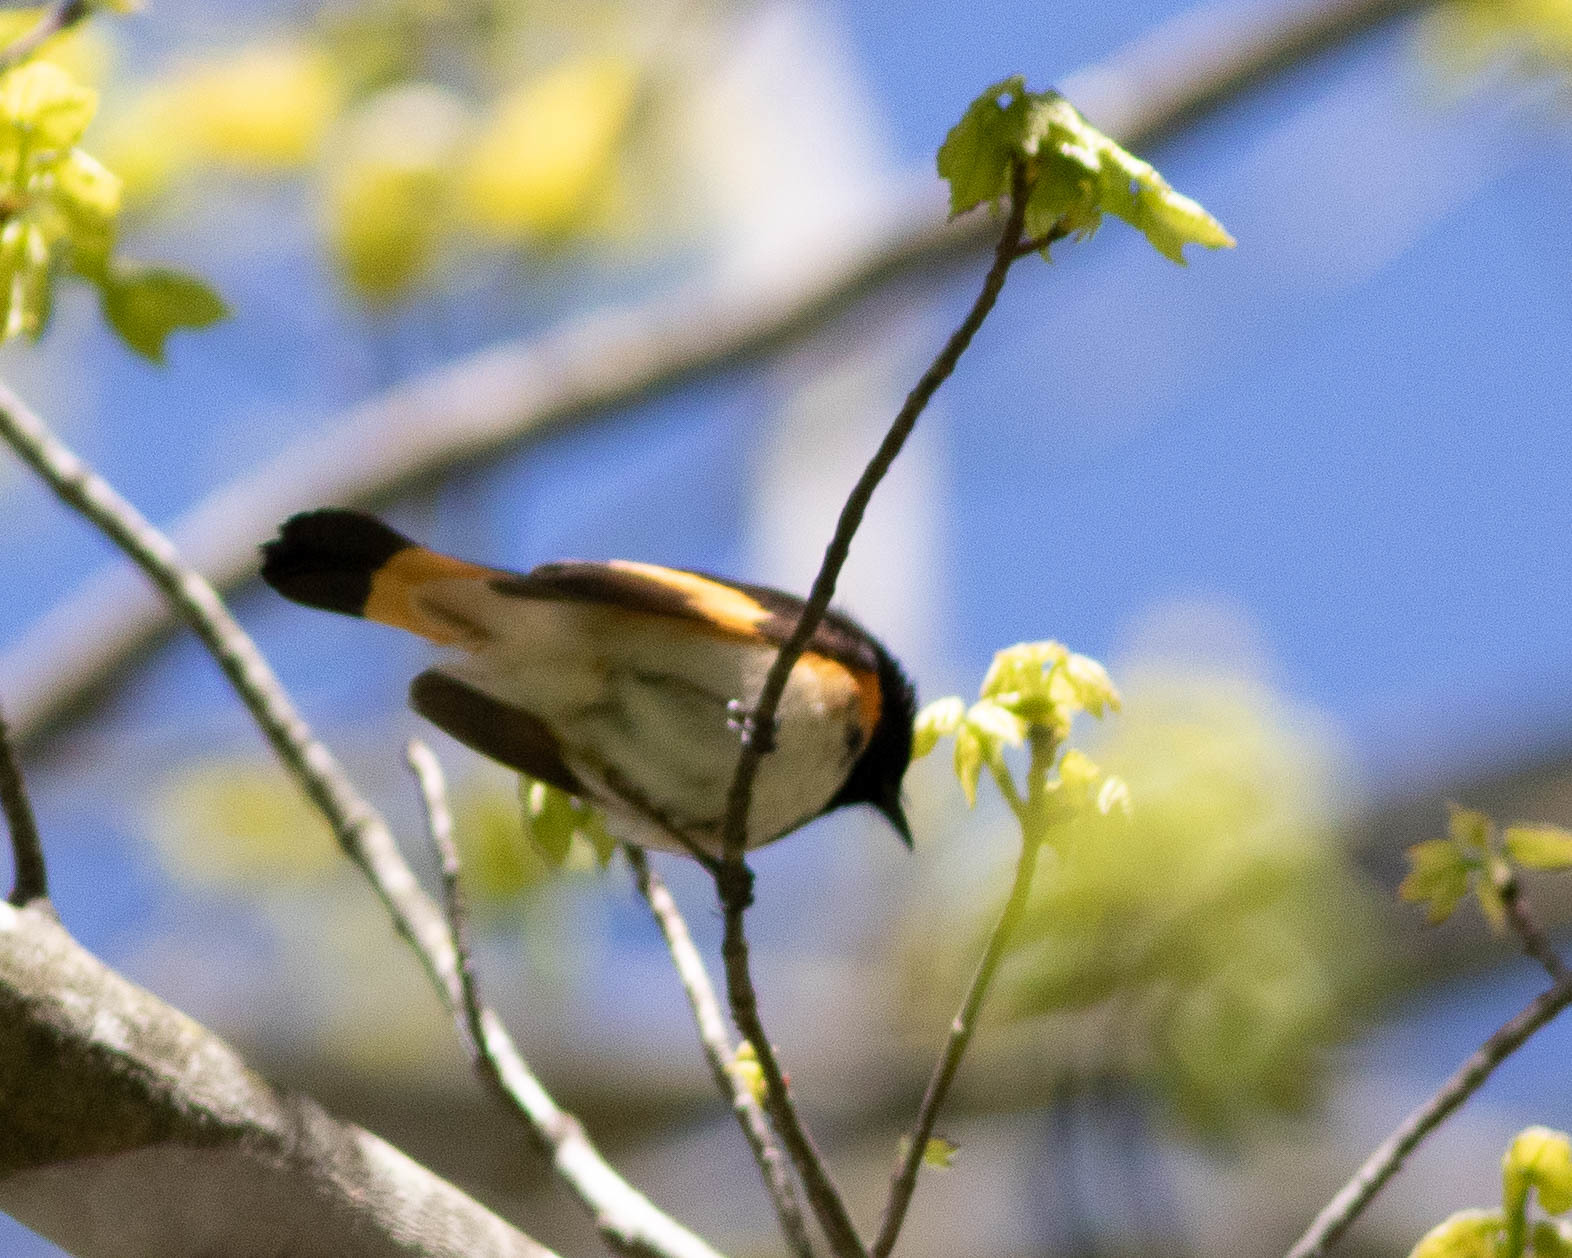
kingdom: Animalia
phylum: Chordata
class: Aves
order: Passeriformes
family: Parulidae
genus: Setophaga
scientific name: Setophaga ruticilla
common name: American redstart
